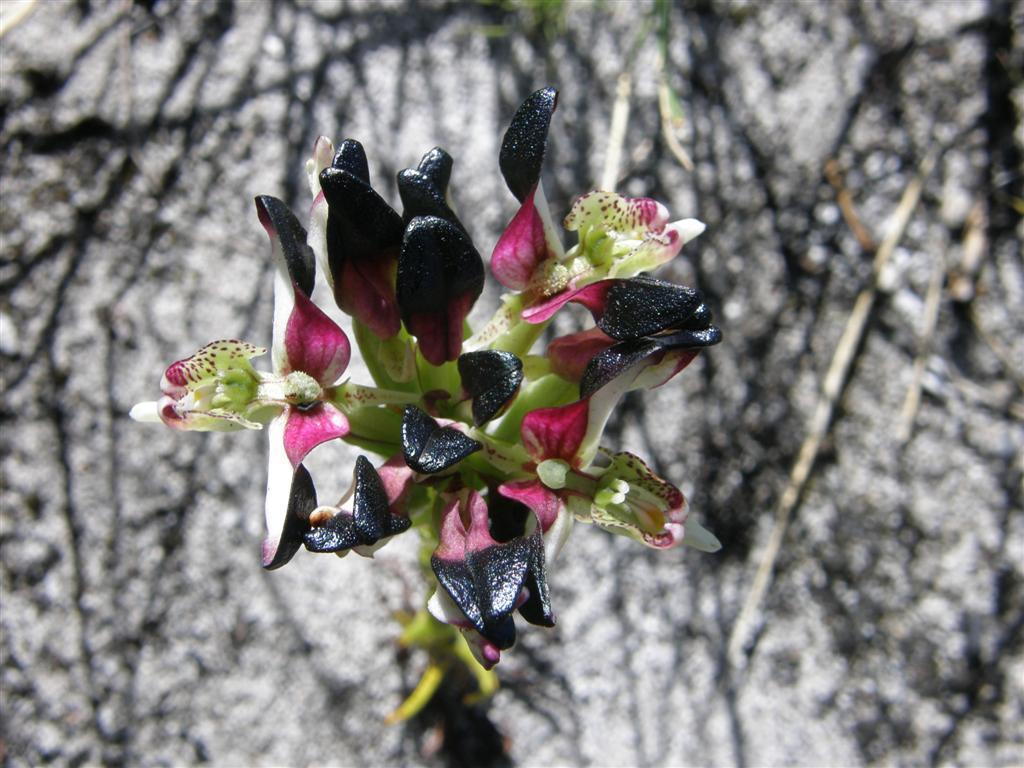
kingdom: Plantae
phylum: Tracheophyta
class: Liliopsida
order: Asparagales
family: Orchidaceae
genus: Disa
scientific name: Disa atricapilla
